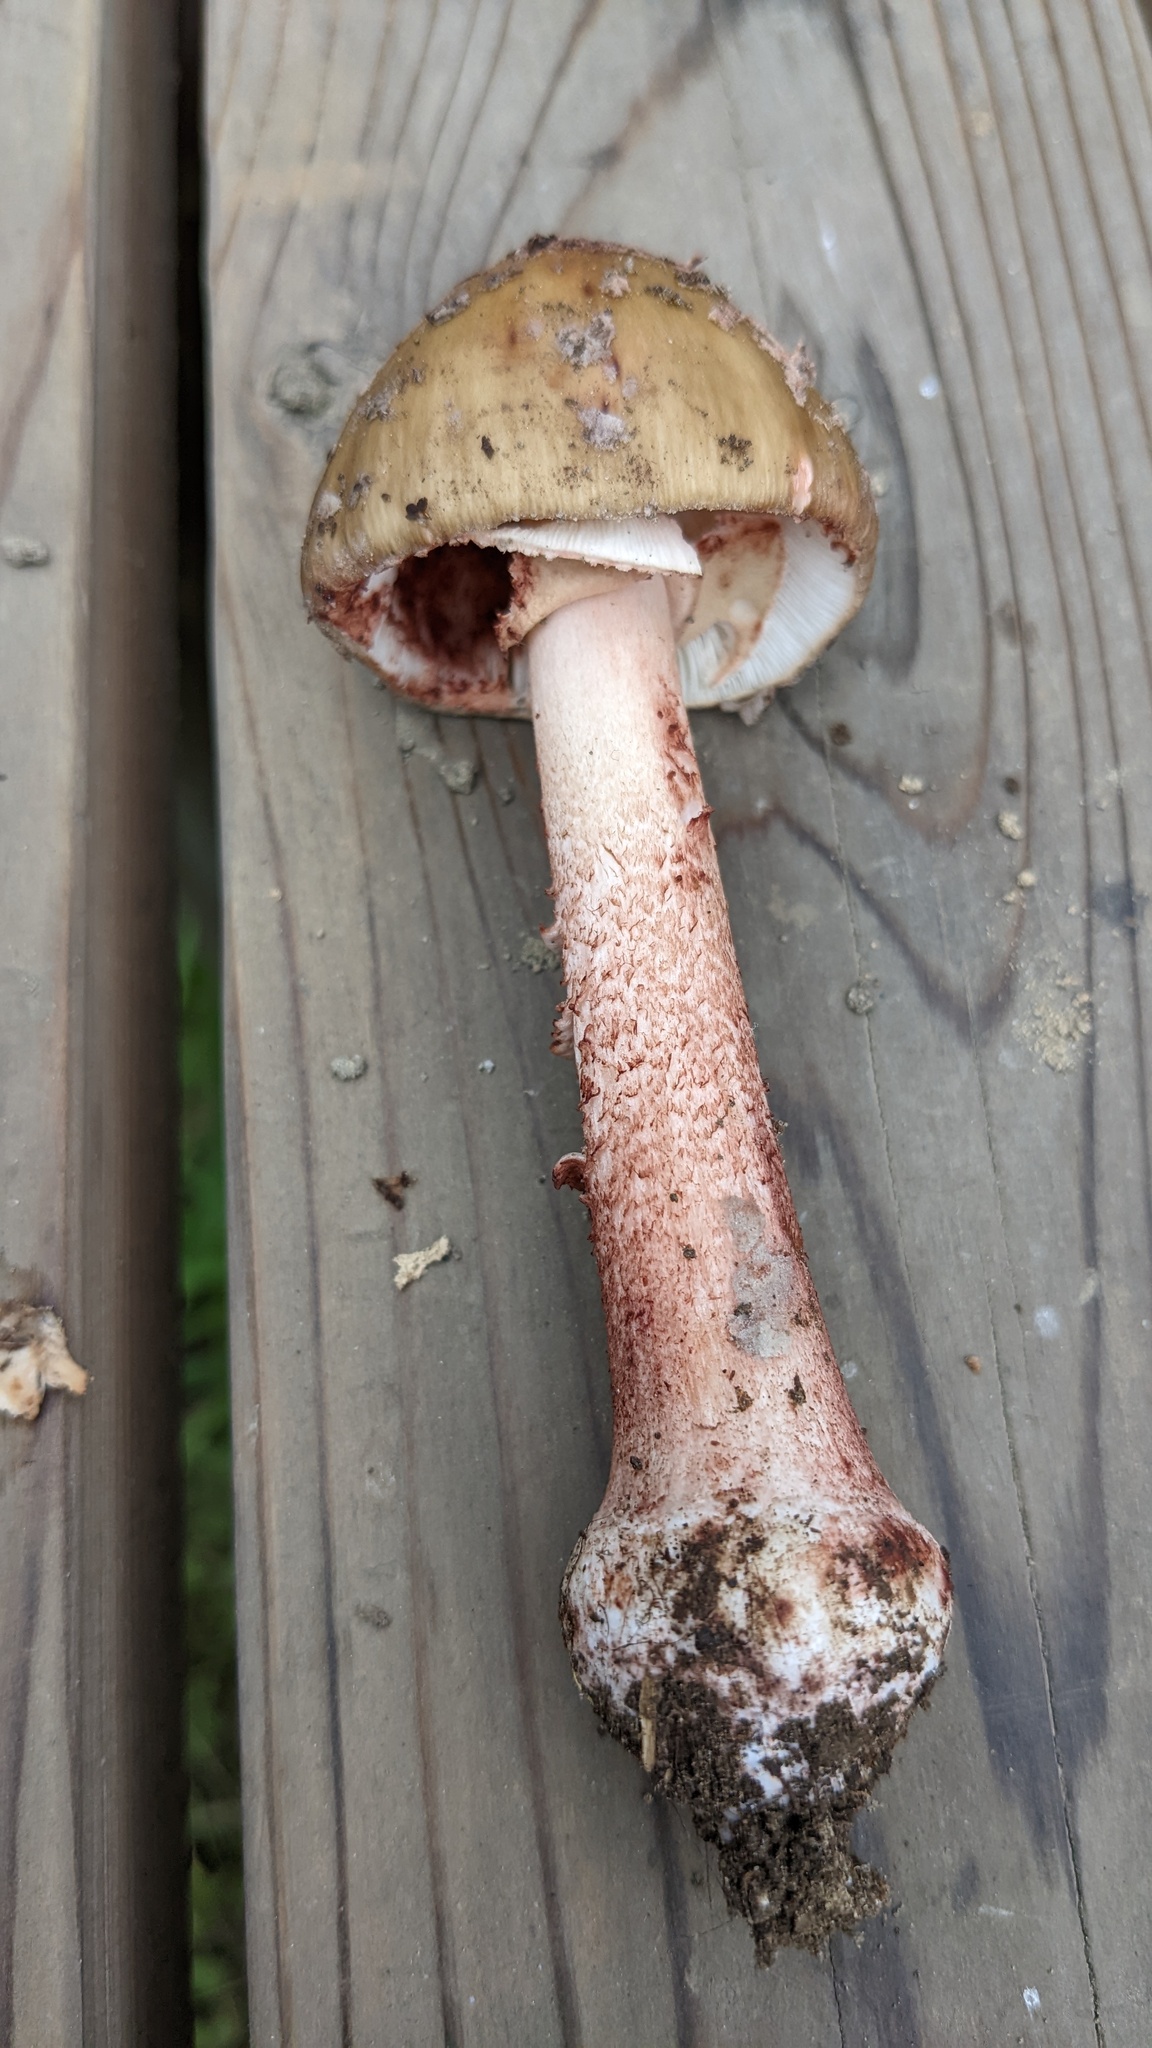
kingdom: Fungi
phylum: Basidiomycota
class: Agaricomycetes
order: Agaricales
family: Amanitaceae
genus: Amanita
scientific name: Amanita rubescens
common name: Blusher
